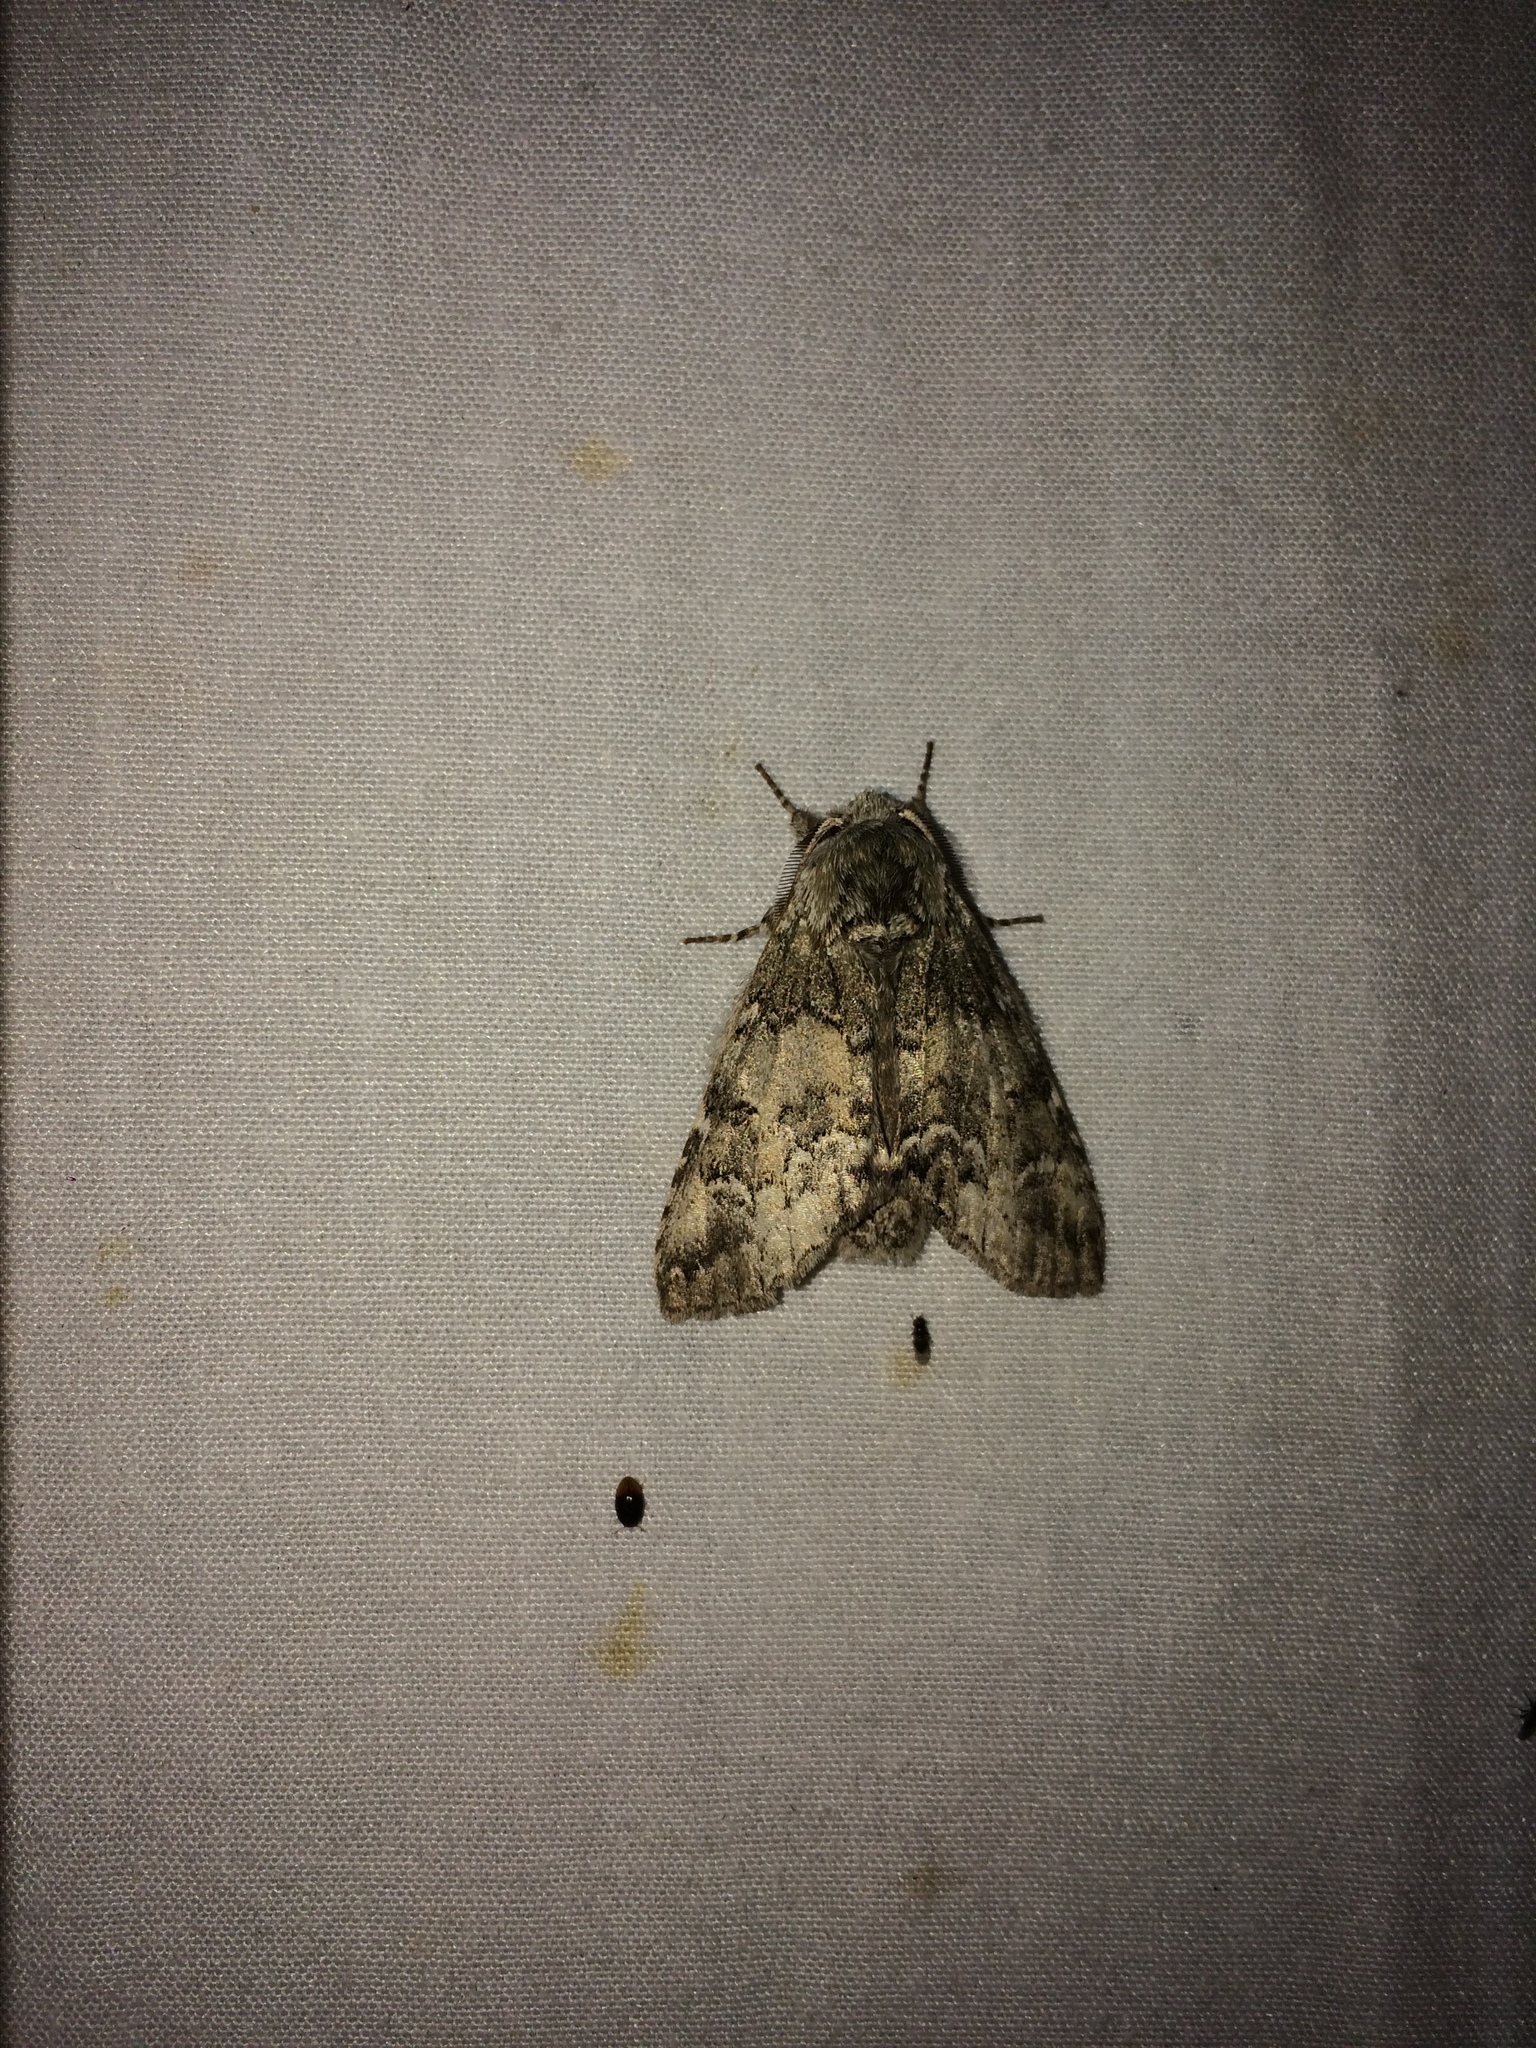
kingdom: Animalia
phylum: Arthropoda
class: Insecta
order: Lepidoptera
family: Notodontidae
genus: Macrurocampa
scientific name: Macrurocampa marthesia
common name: Mottled prominent
